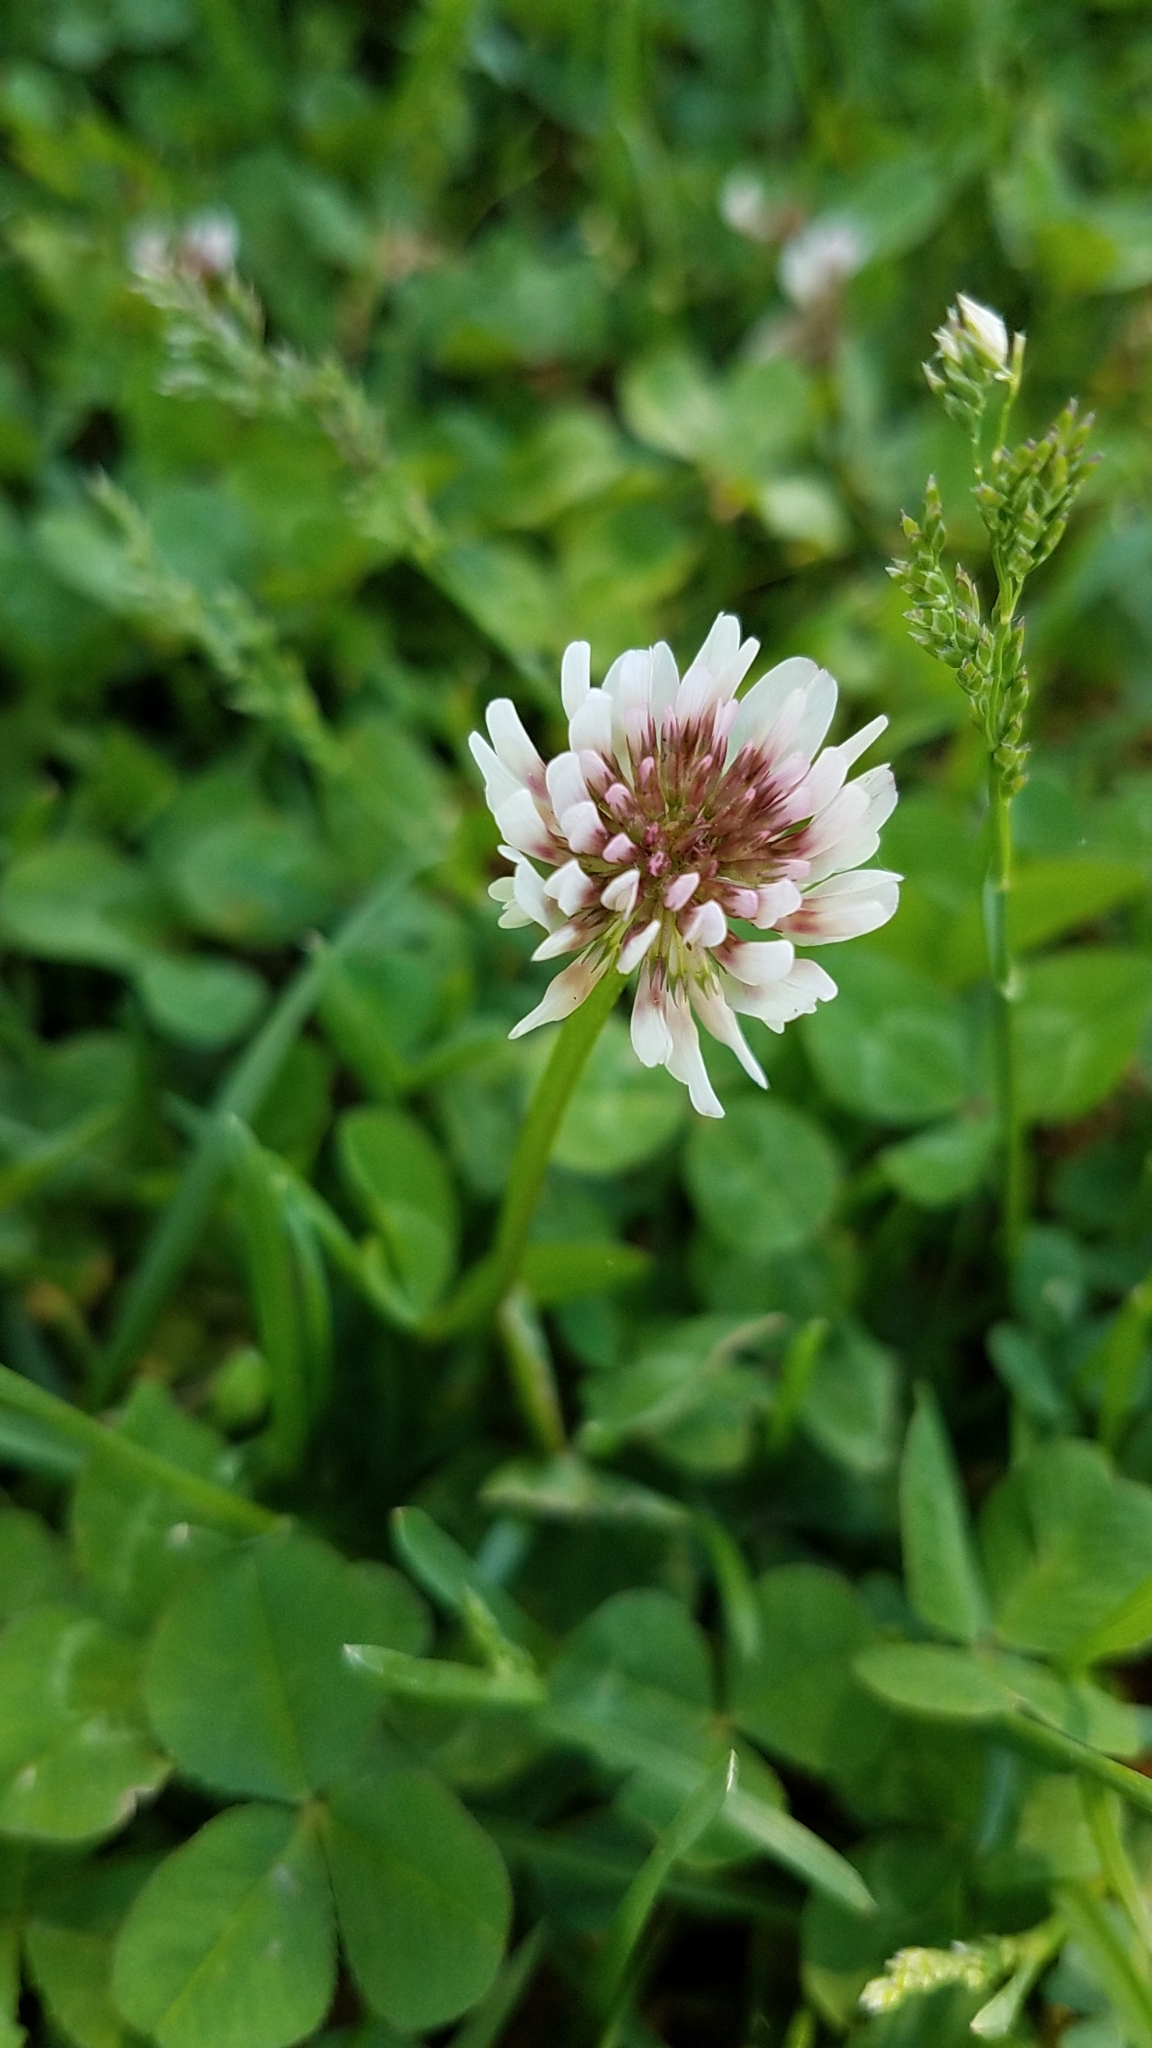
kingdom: Plantae
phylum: Tracheophyta
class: Magnoliopsida
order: Fabales
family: Fabaceae
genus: Trifolium
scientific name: Trifolium repens
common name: White clover
